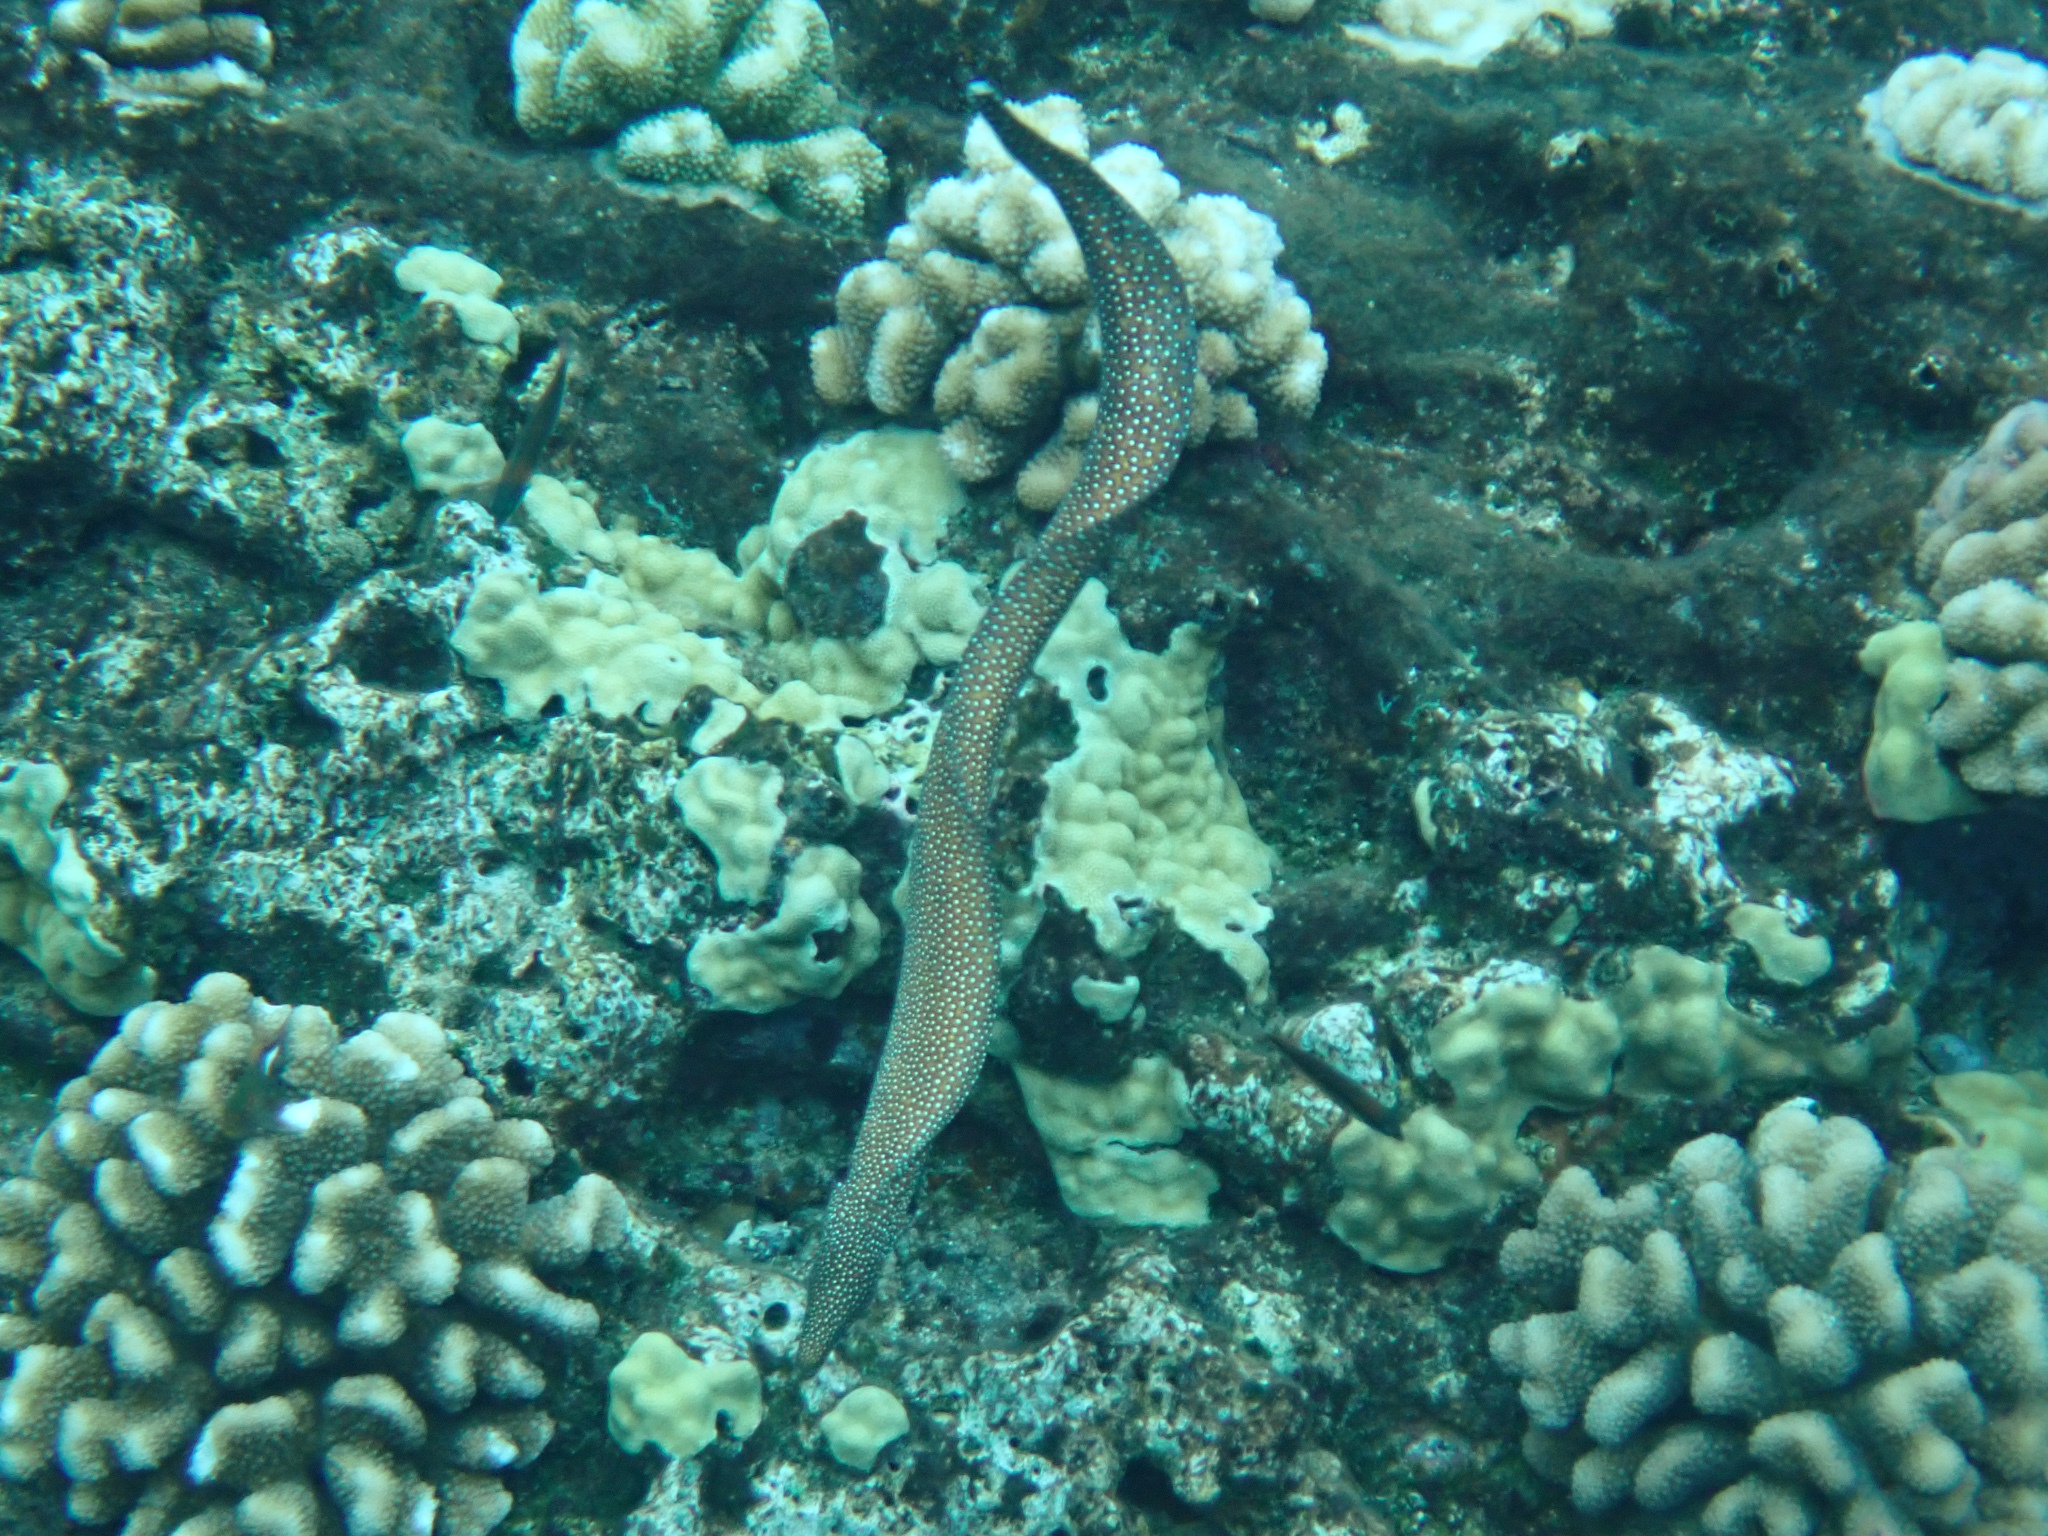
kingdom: Animalia
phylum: Chordata
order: Anguilliformes
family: Muraenidae
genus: Gymnothorax
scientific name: Gymnothorax meleagris
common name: Guineafowl moray
